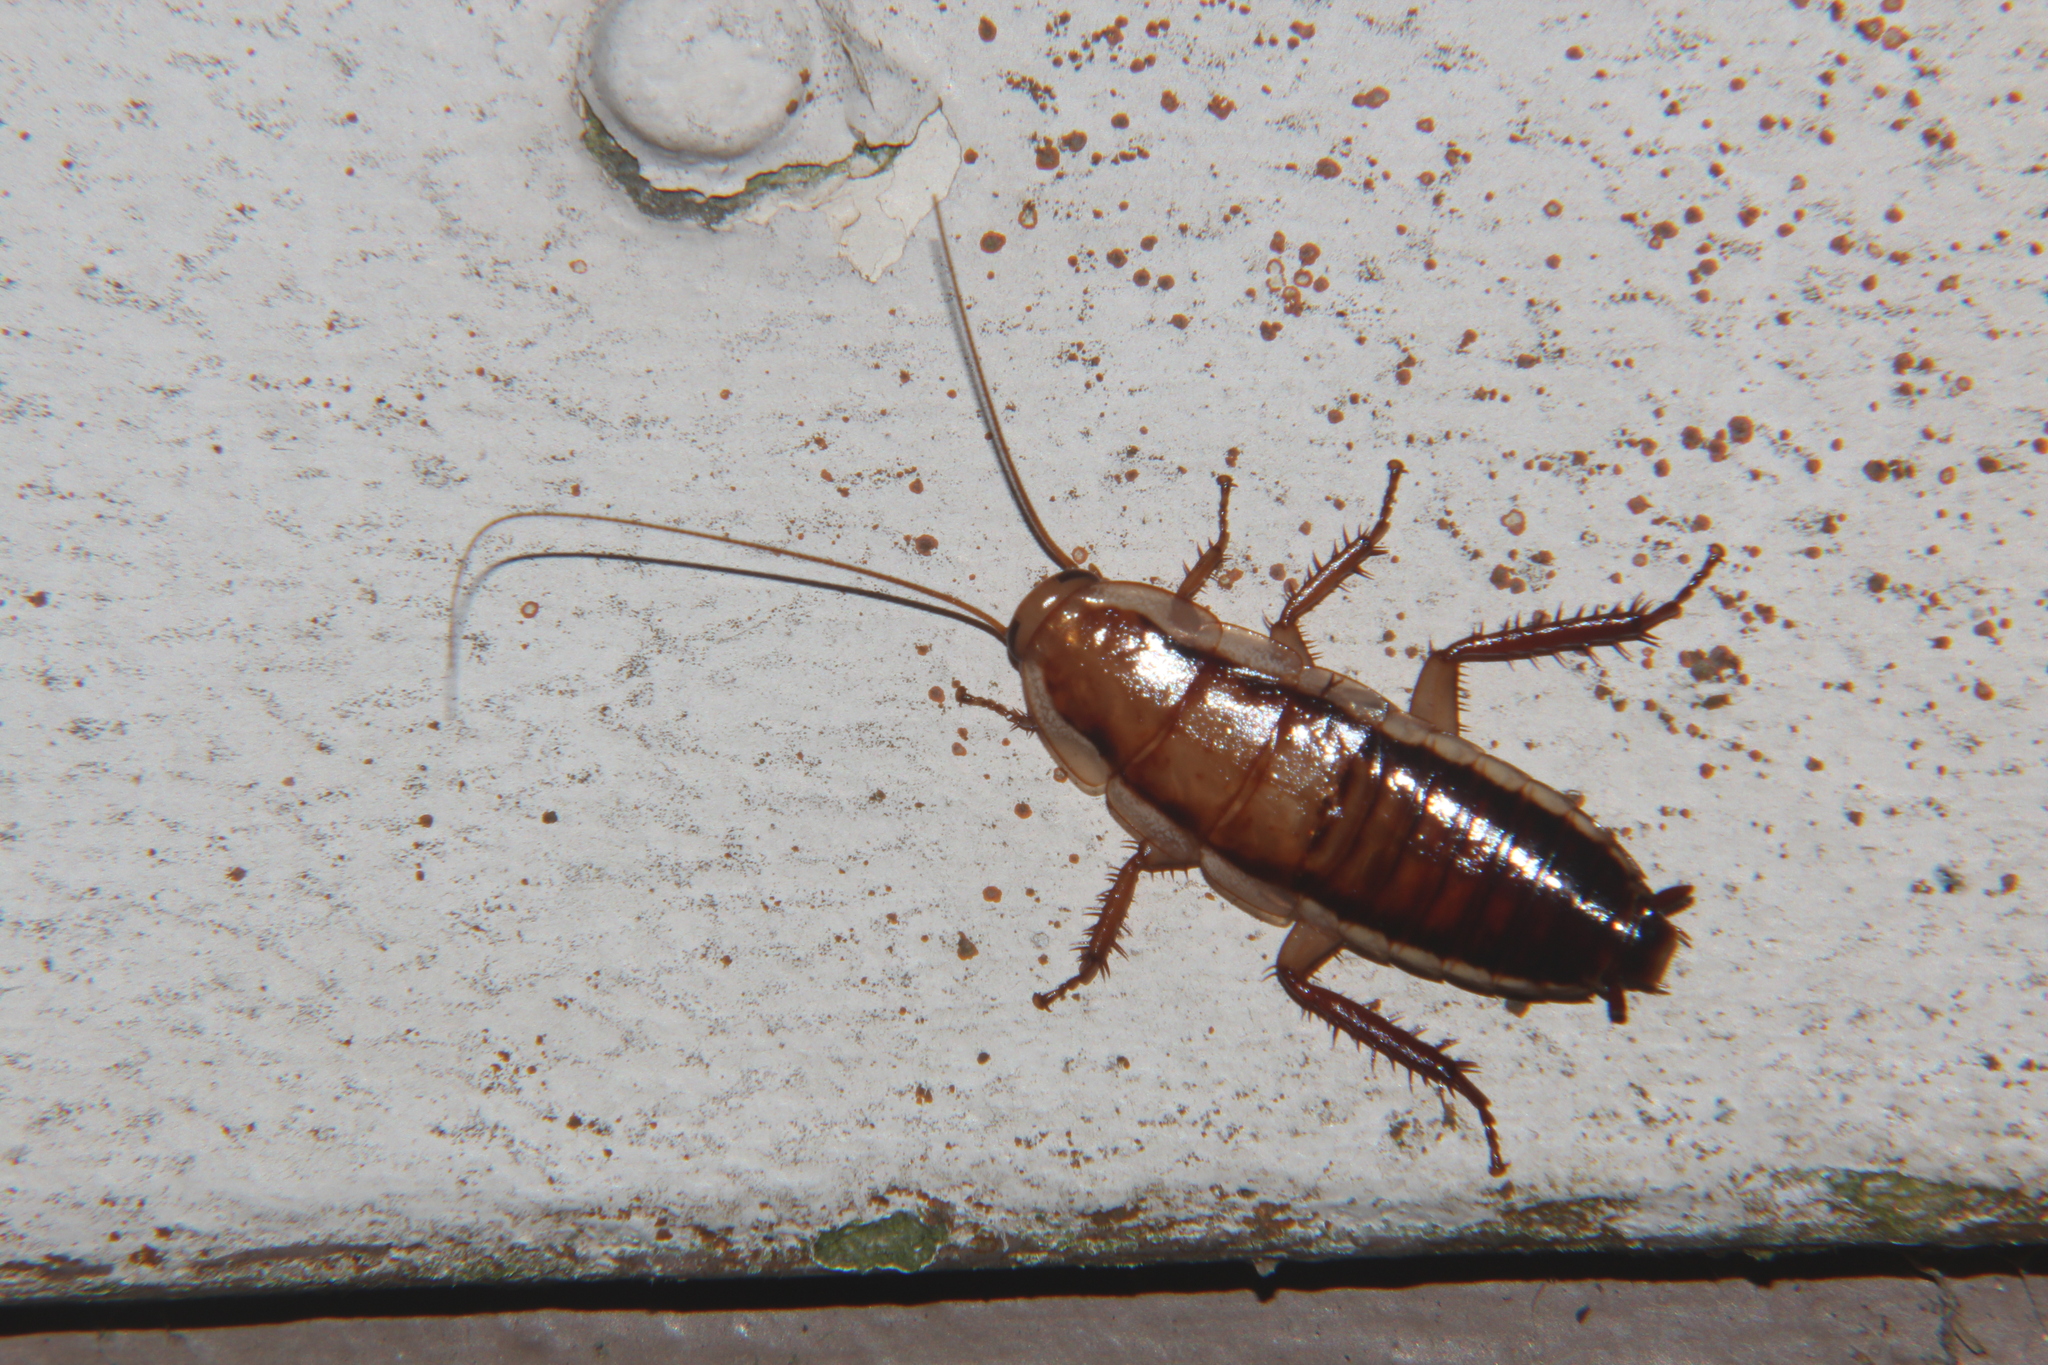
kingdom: Animalia
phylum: Arthropoda
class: Insecta
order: Blattodea
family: Blattidae
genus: Drymaplaneta
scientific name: Drymaplaneta heydeniana
